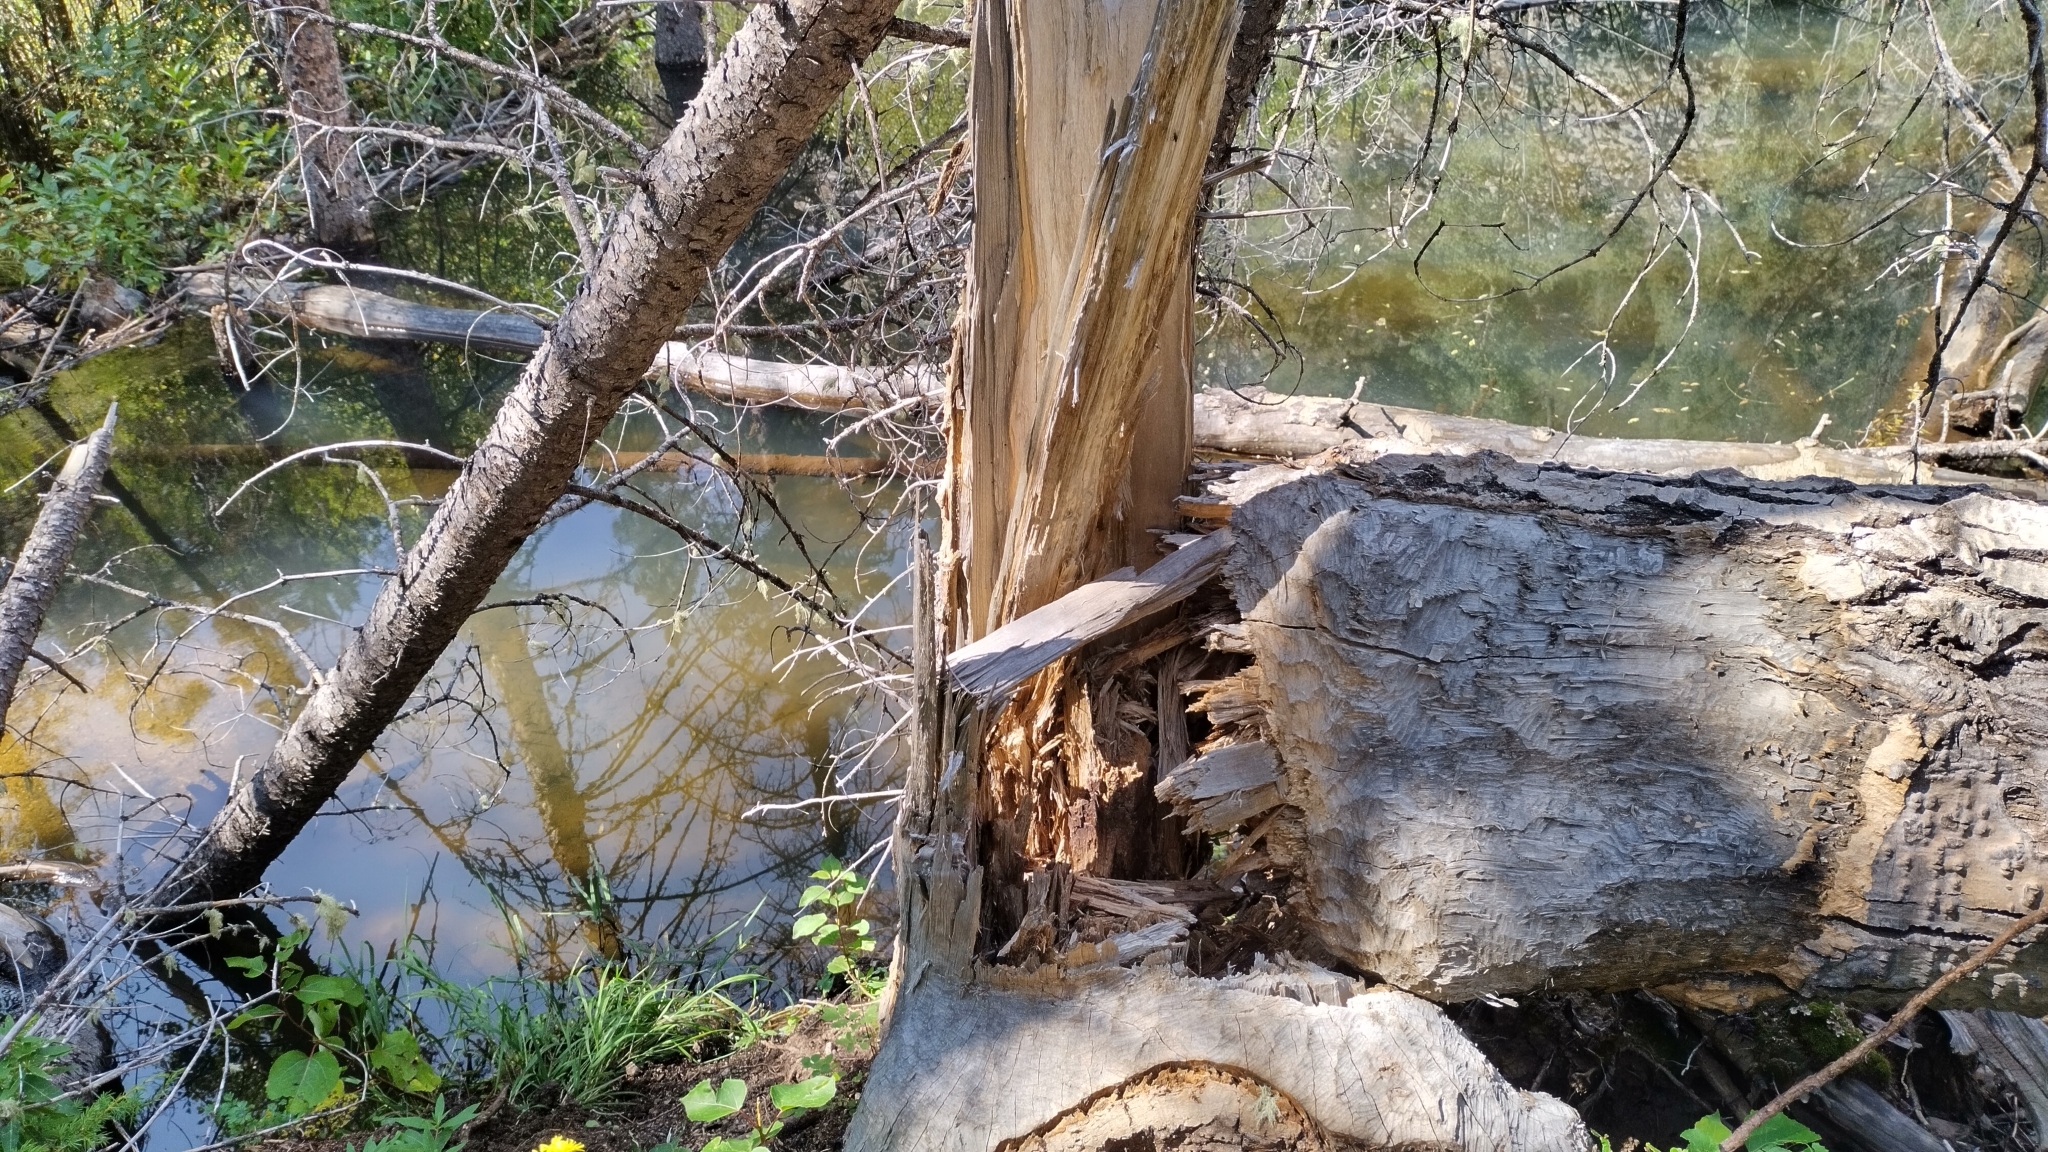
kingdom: Animalia
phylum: Chordata
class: Mammalia
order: Rodentia
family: Castoridae
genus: Castor
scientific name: Castor canadensis
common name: American beaver
